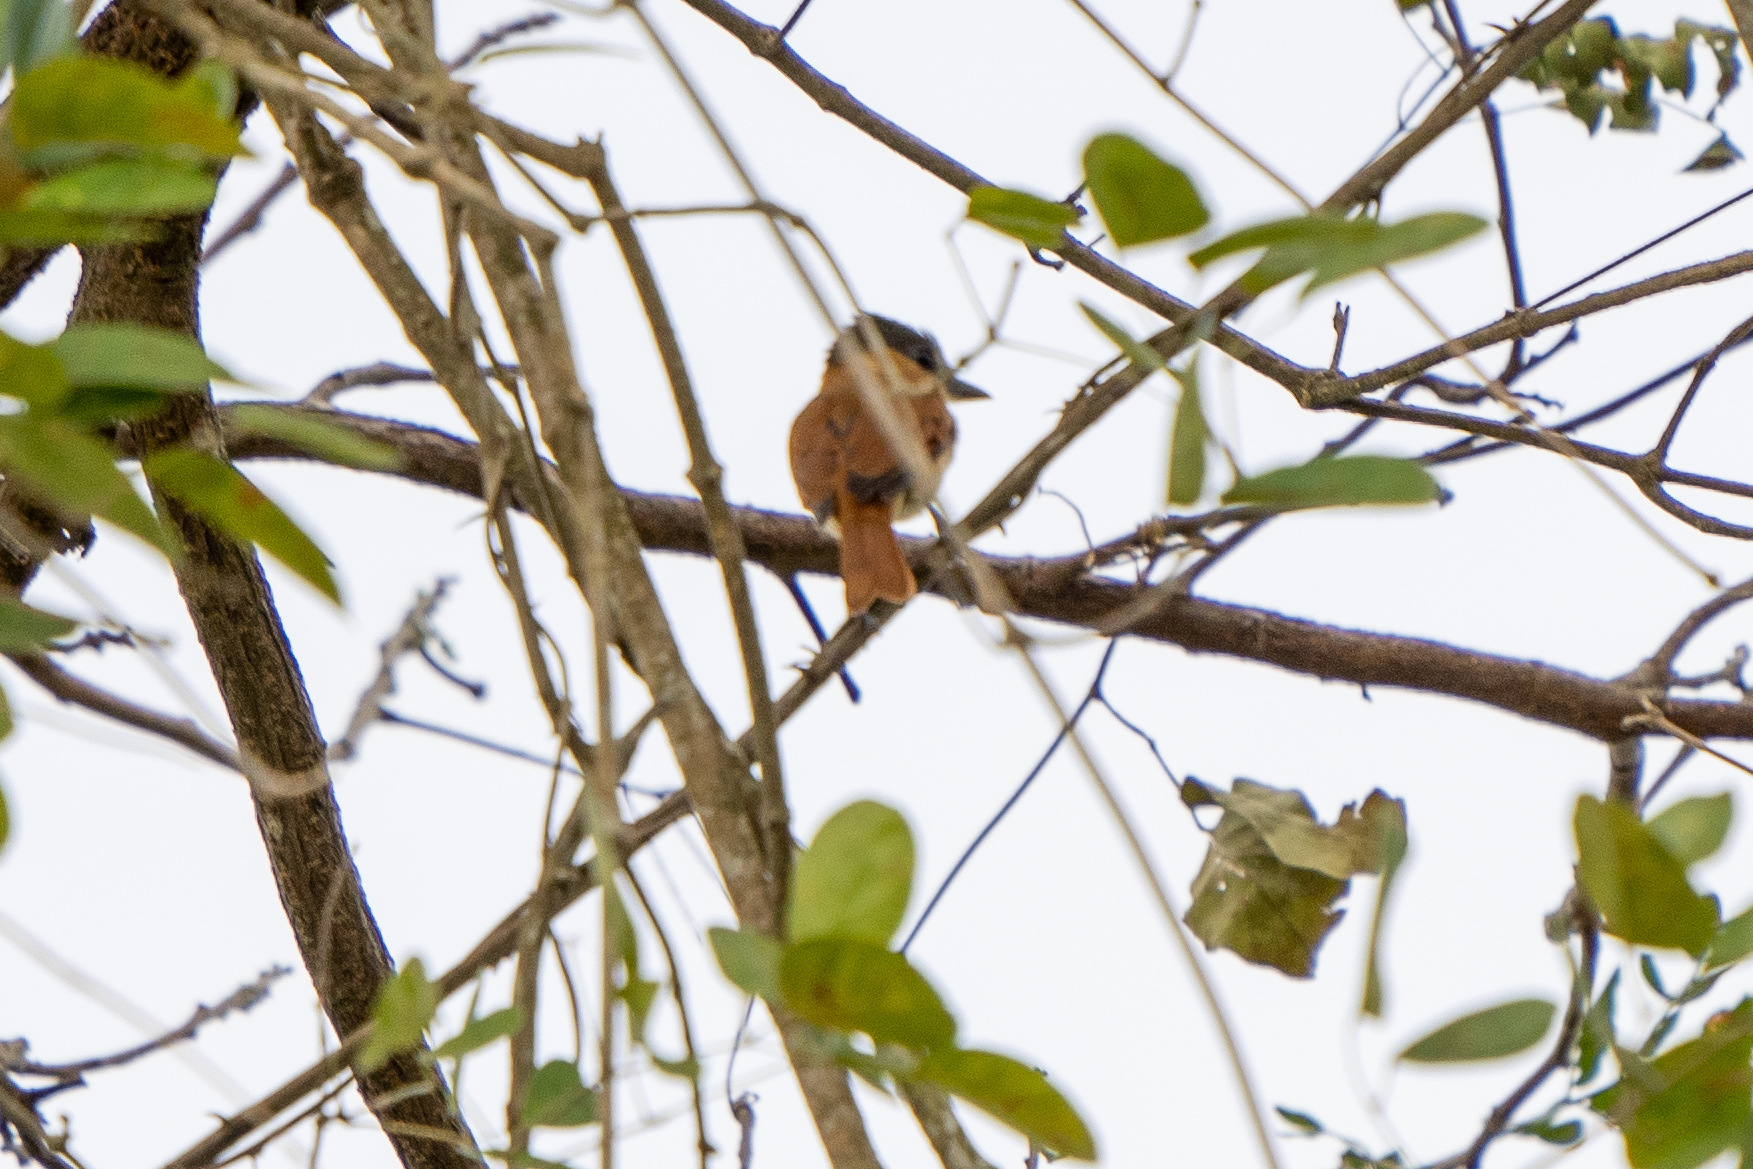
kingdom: Animalia
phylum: Chordata
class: Aves
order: Passeriformes
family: Cotingidae
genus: Pachyramphus
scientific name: Pachyramphus aglaiae
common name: Rose-throated becard
